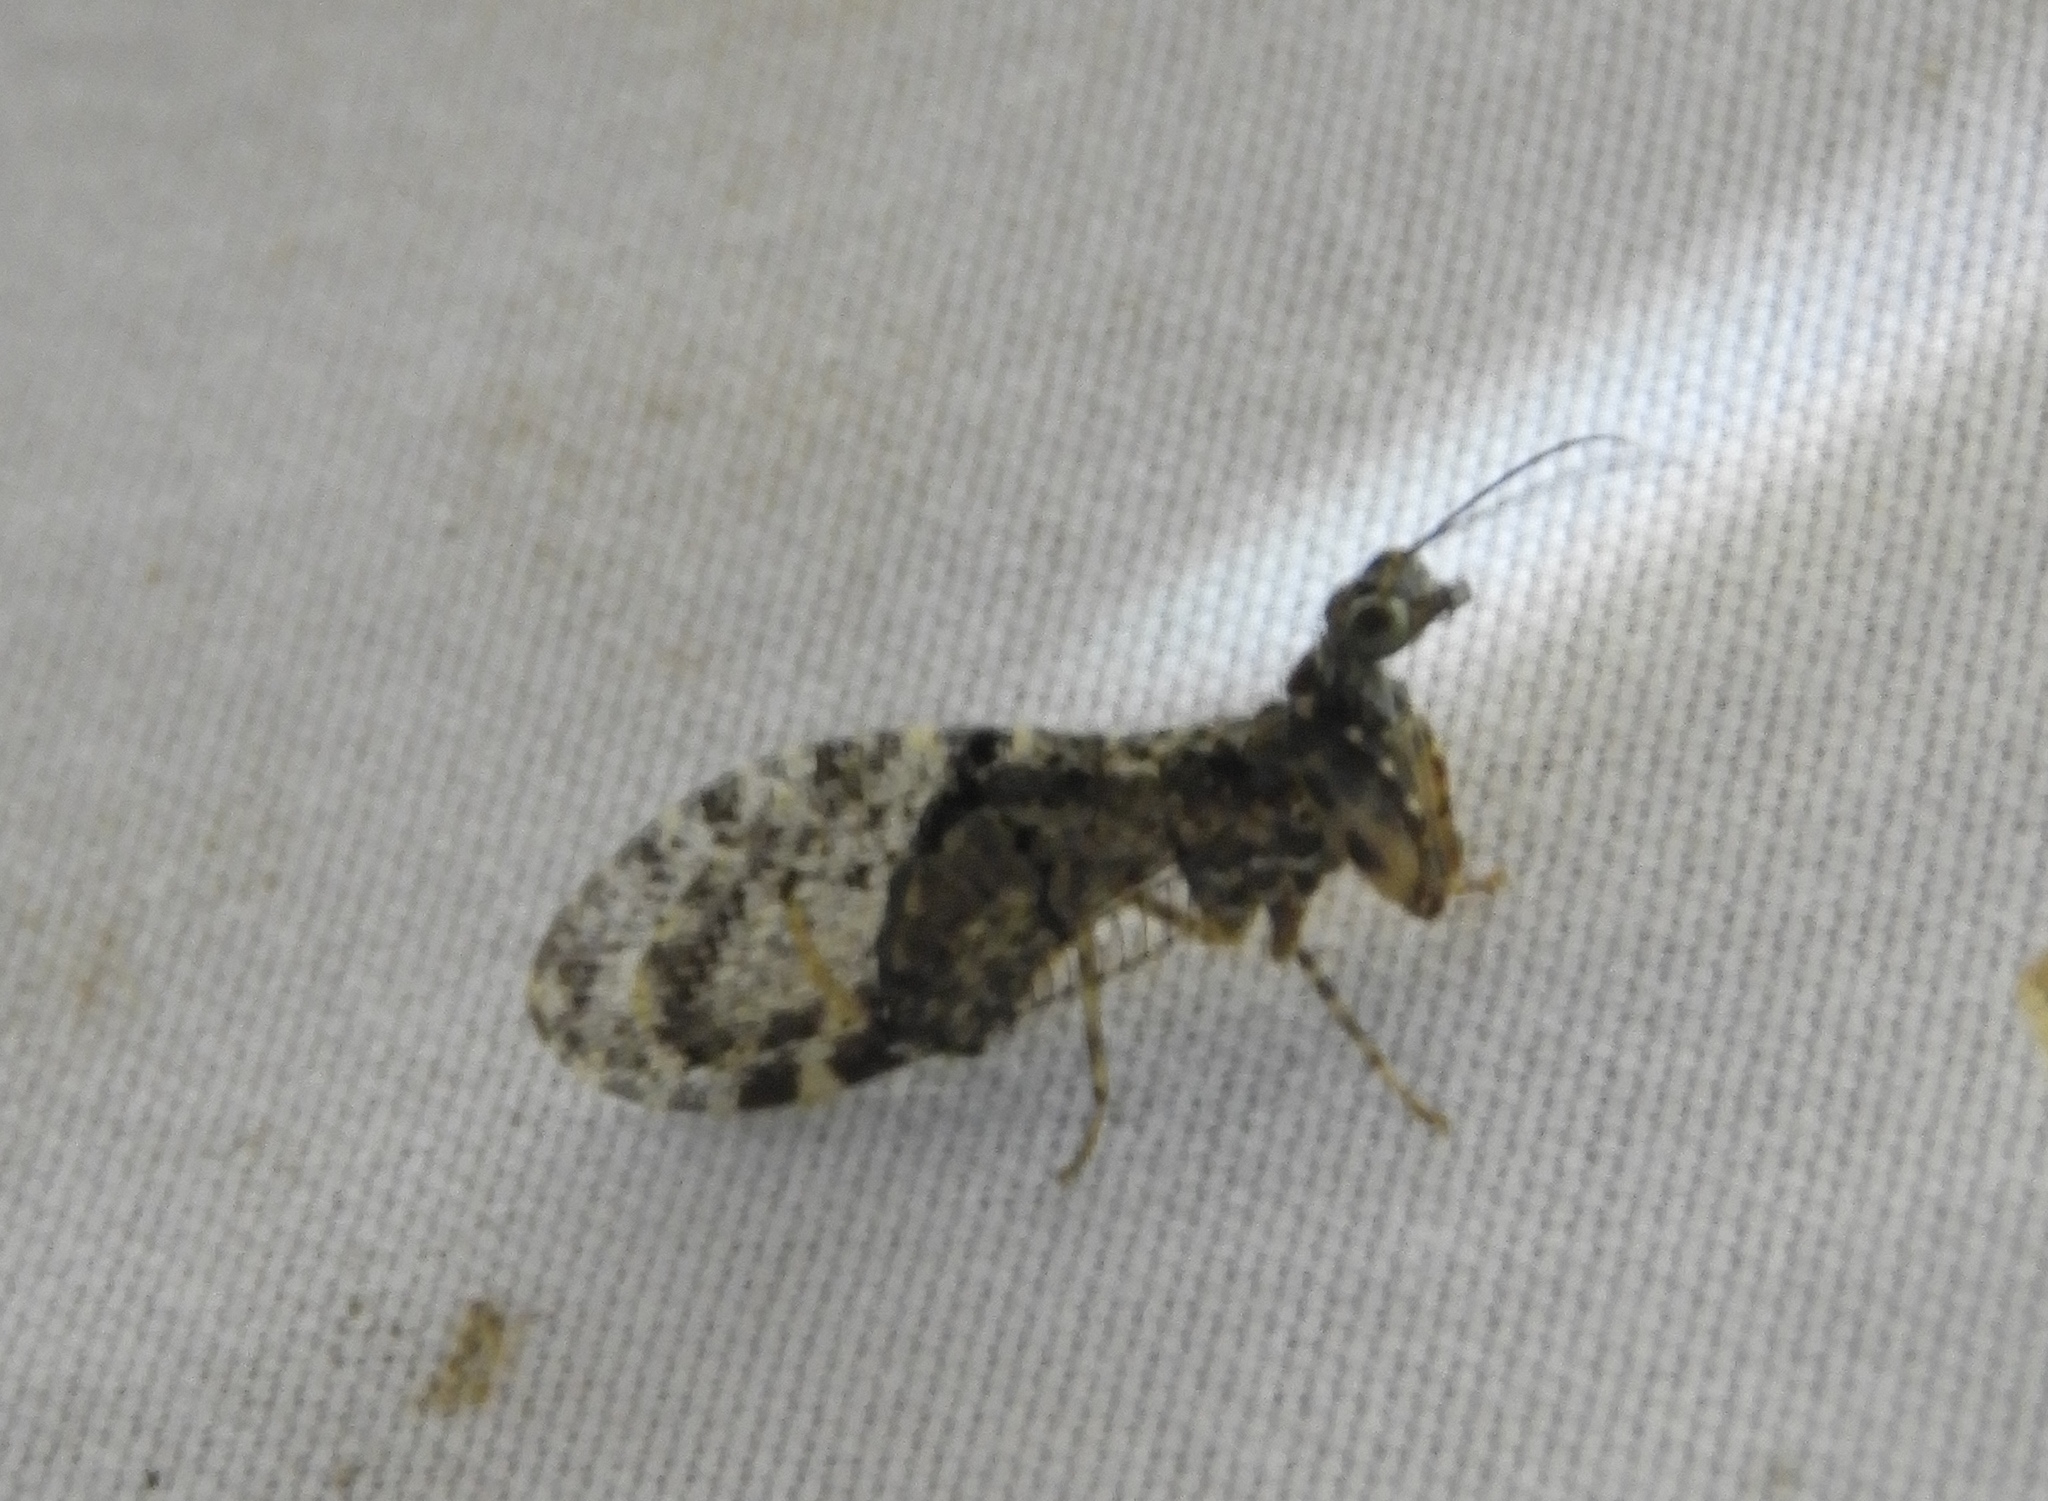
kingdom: Animalia
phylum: Arthropoda
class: Insecta
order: Neuroptera
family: Mantispidae
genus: Plega
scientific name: Plega dactylota
